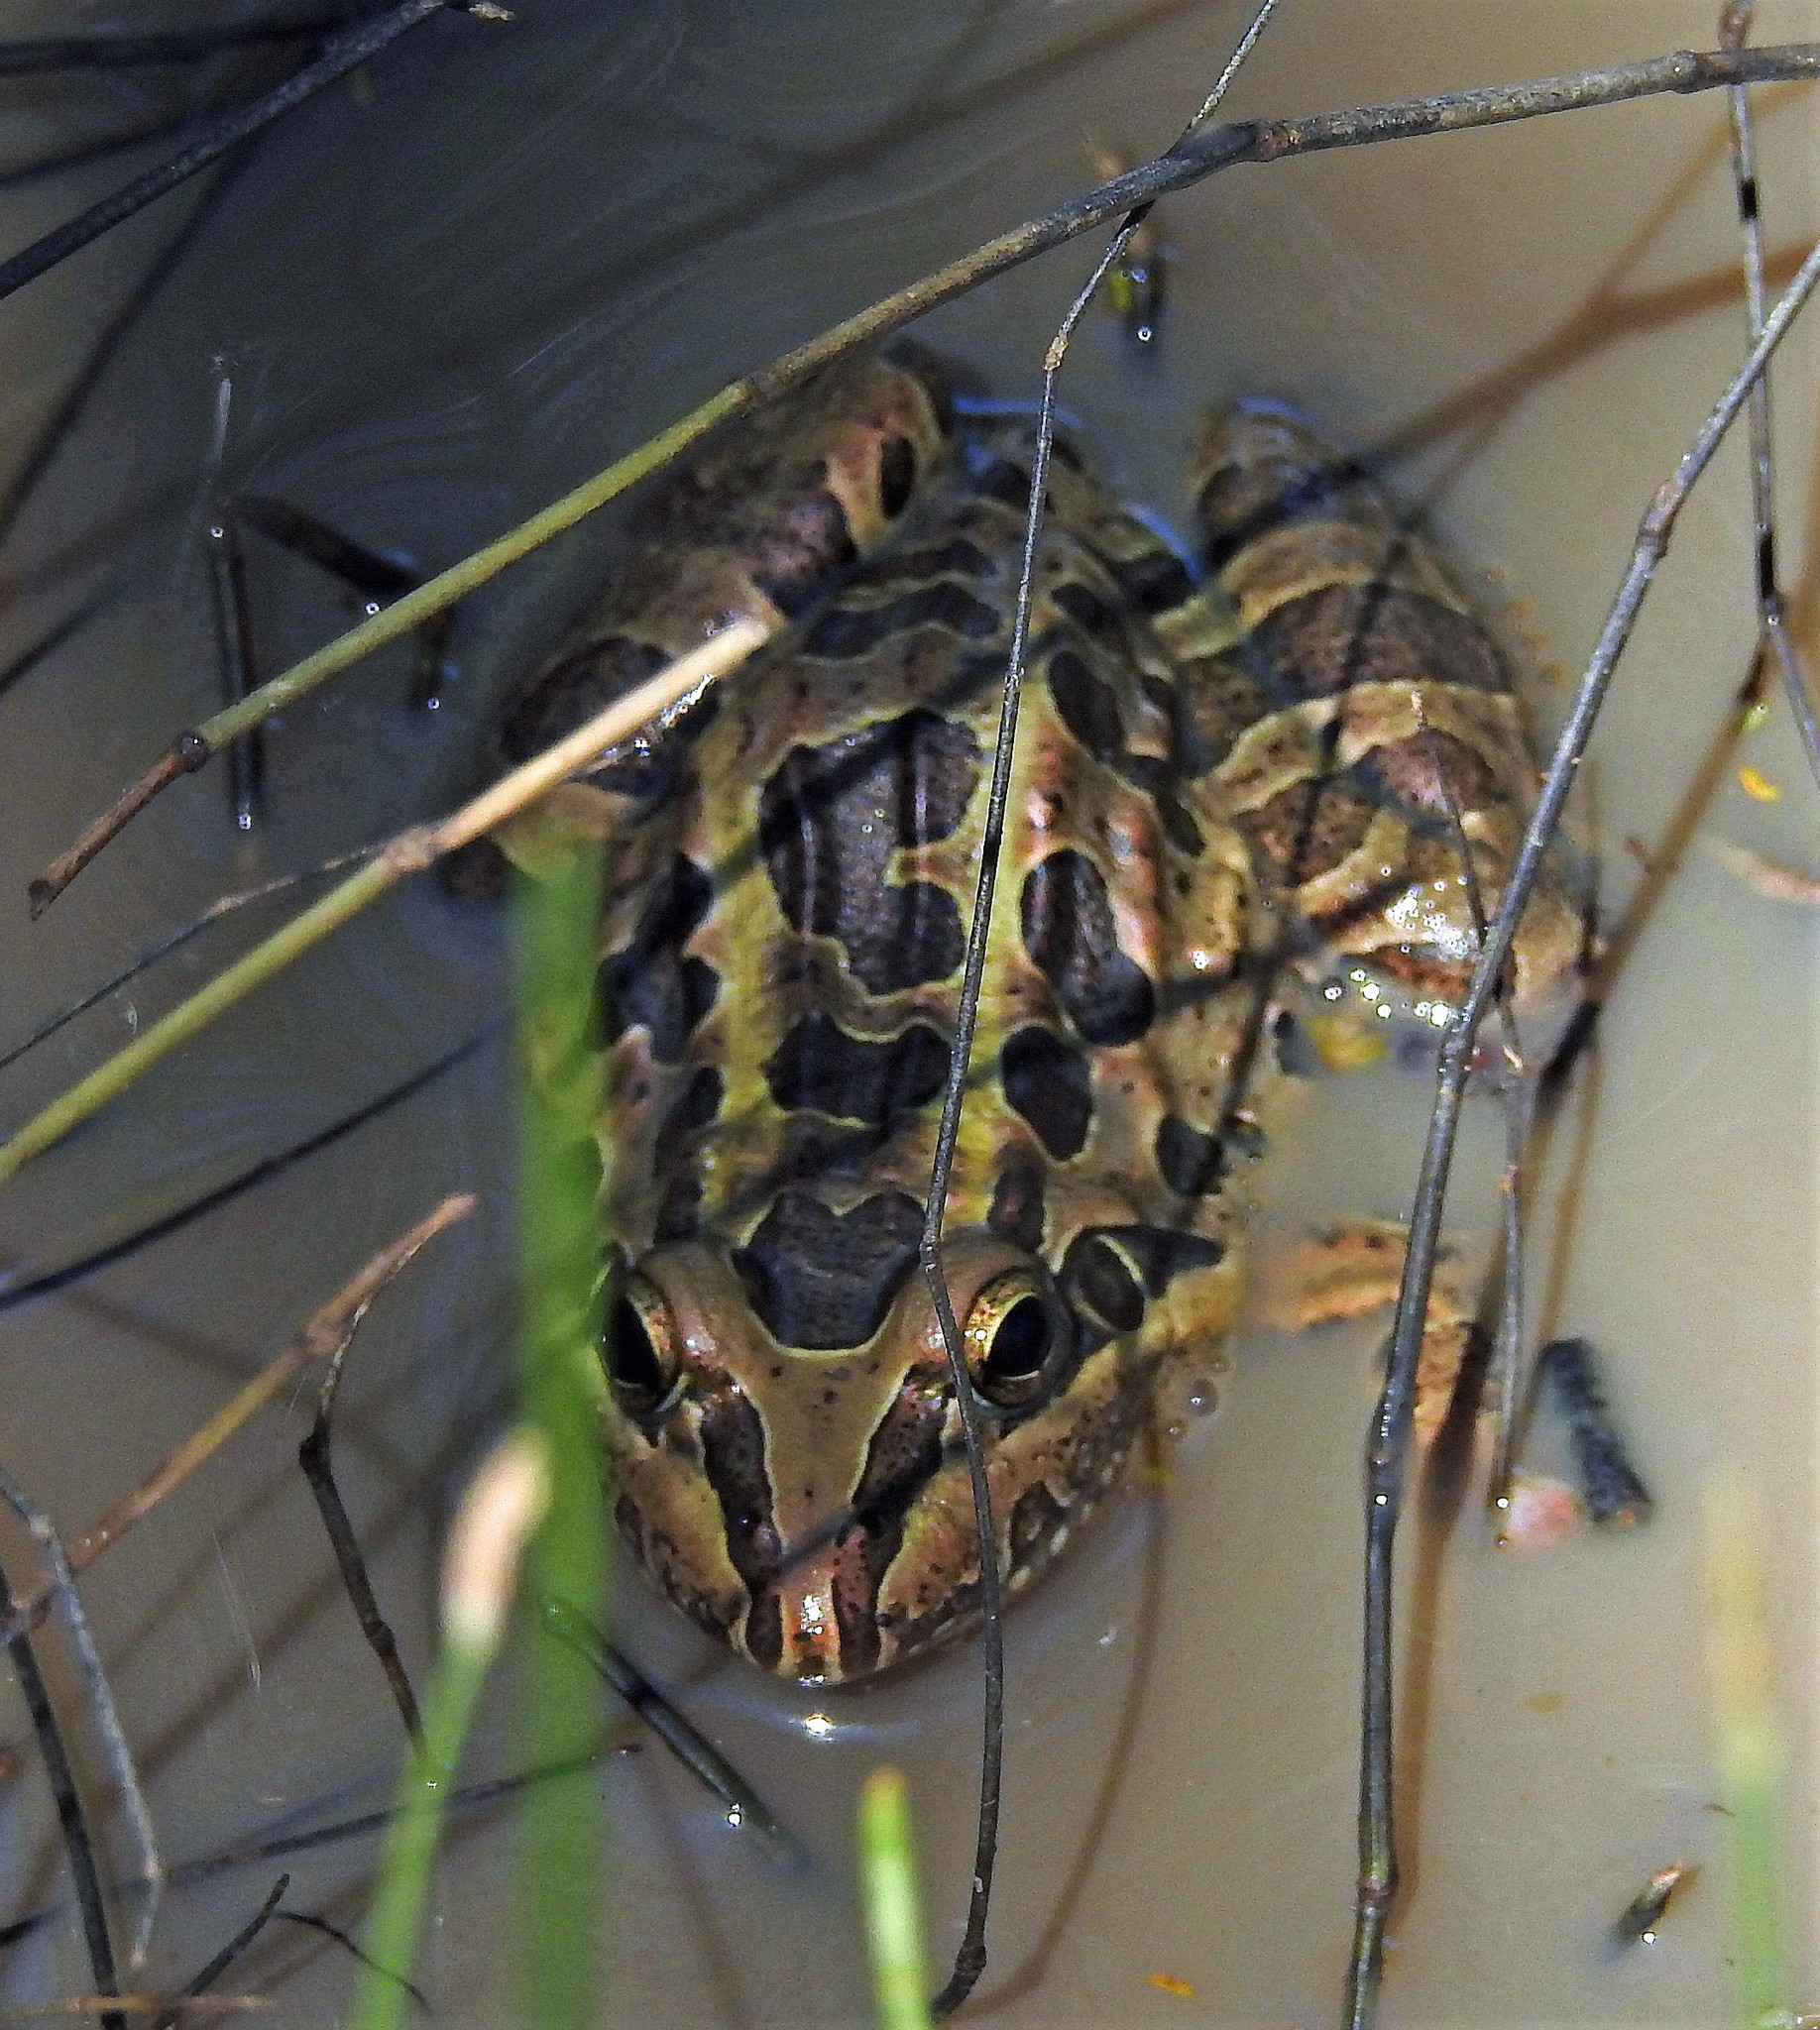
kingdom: Animalia
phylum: Chordata
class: Amphibia
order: Anura
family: Leptodactylidae
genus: Leptodactylus
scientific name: Leptodactylus luctator
